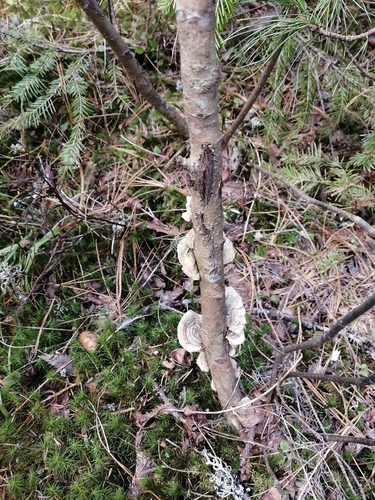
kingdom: Fungi
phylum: Basidiomycota
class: Agaricomycetes
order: Polyporales
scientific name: Polyporales
